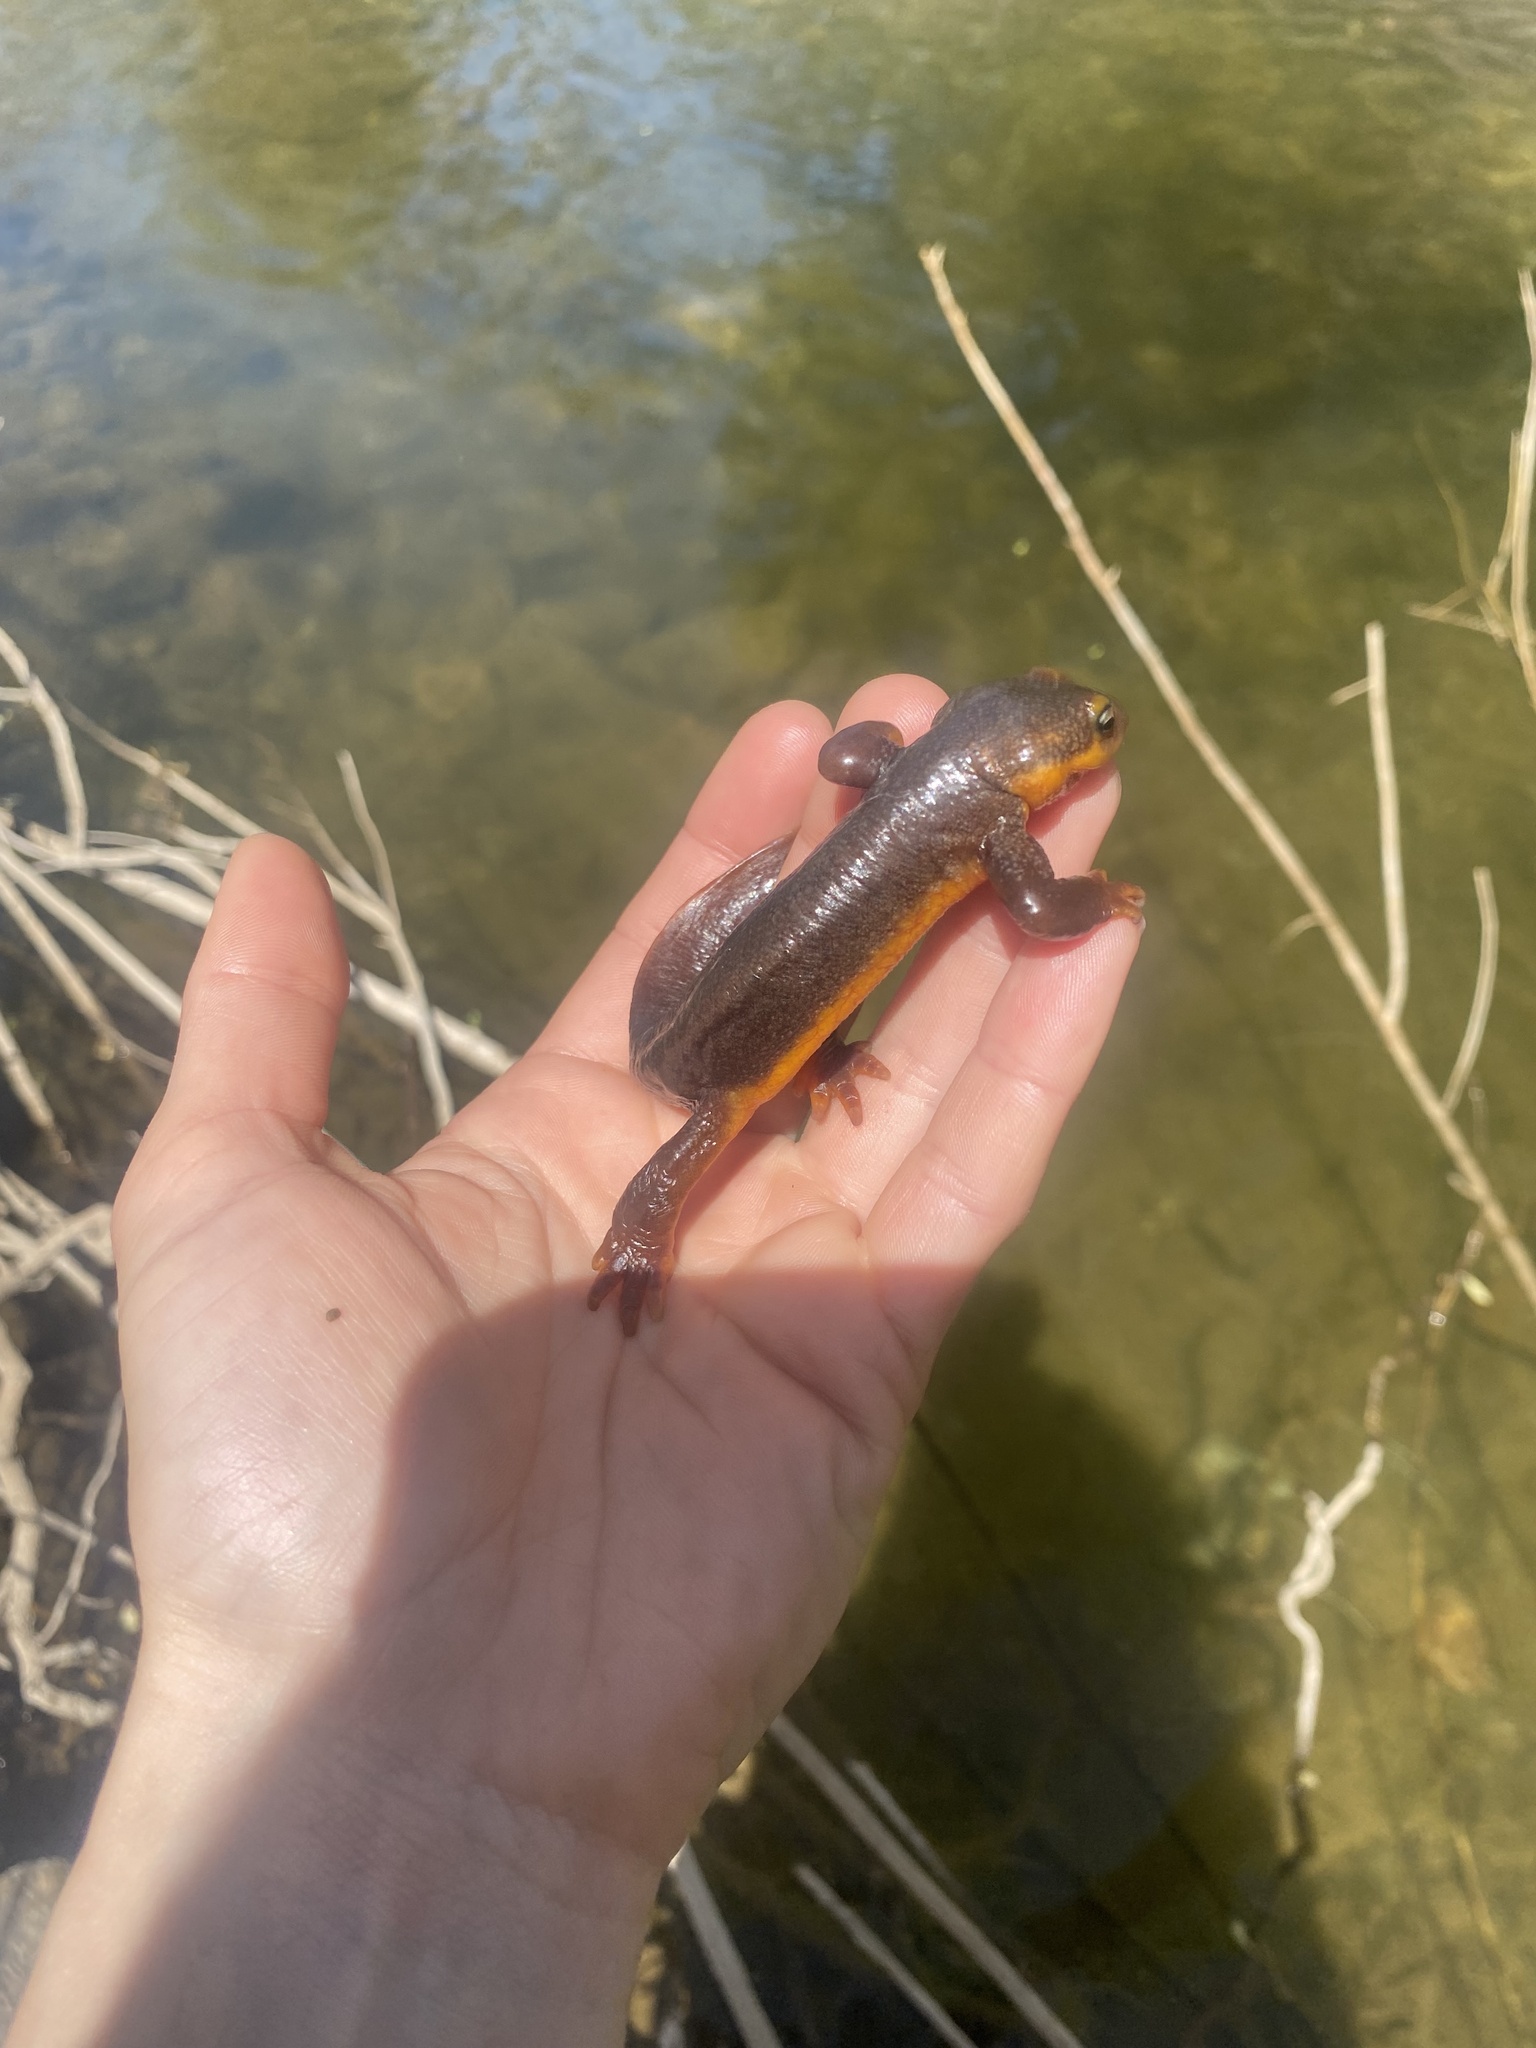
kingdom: Animalia
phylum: Chordata
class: Amphibia
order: Caudata
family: Salamandridae
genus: Taricha
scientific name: Taricha torosa
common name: California newt
